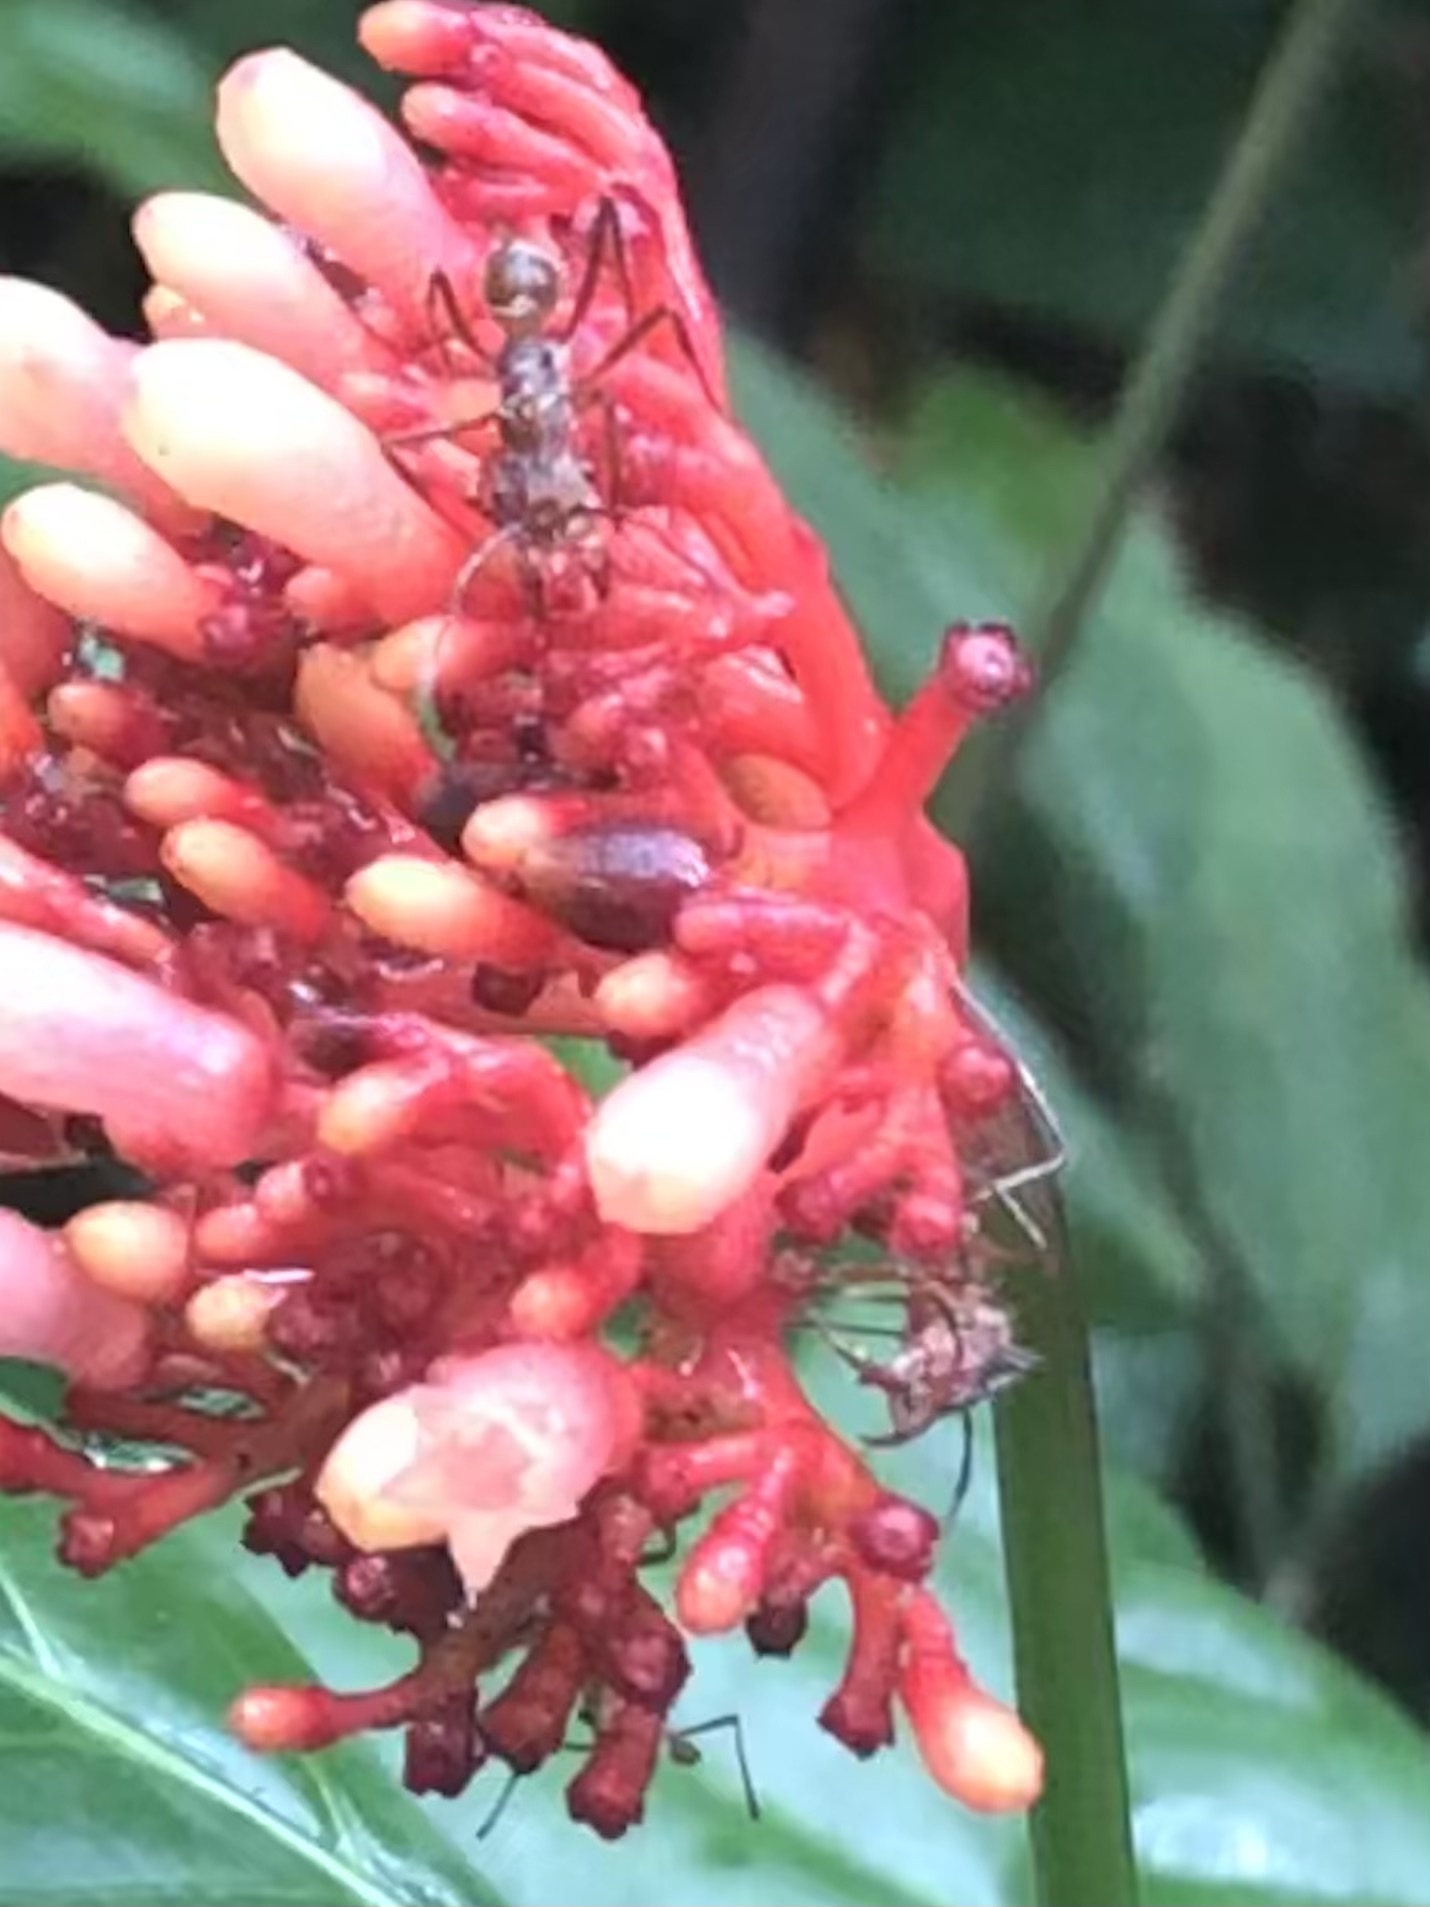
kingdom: Animalia
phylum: Arthropoda
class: Insecta
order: Hymenoptera
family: Formicidae
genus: Ectatomma
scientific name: Ectatomma tuberculatum
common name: Ant
